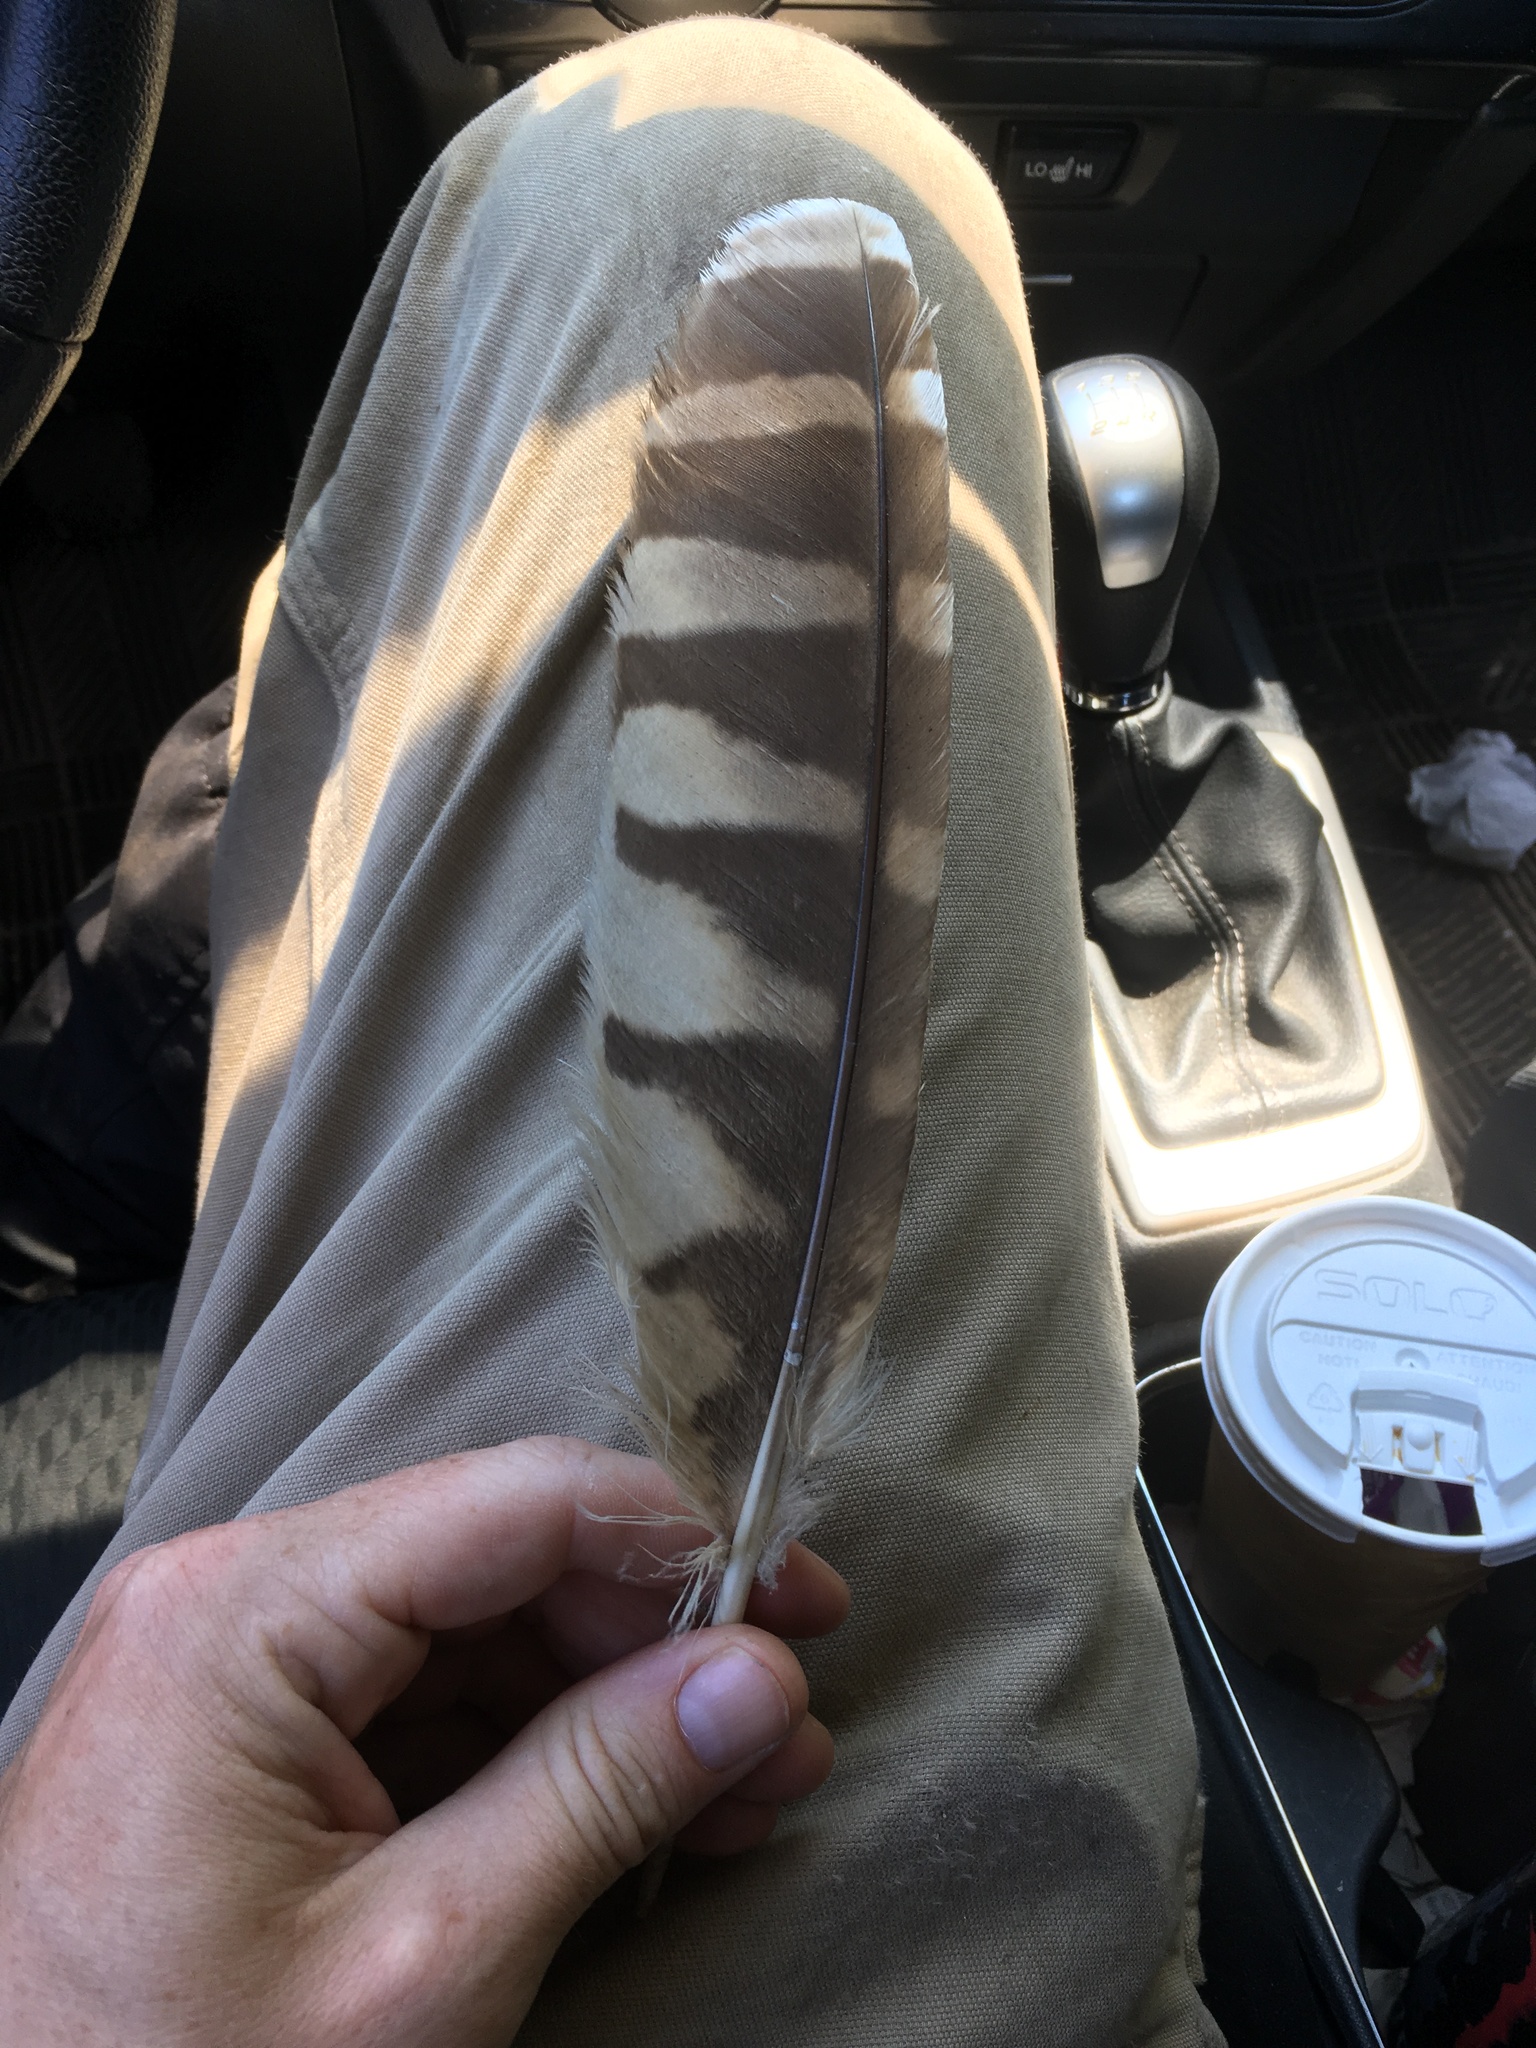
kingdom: Animalia
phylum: Chordata
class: Aves
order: Strigiformes
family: Strigidae
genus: Strix
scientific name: Strix varia
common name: Barred owl
